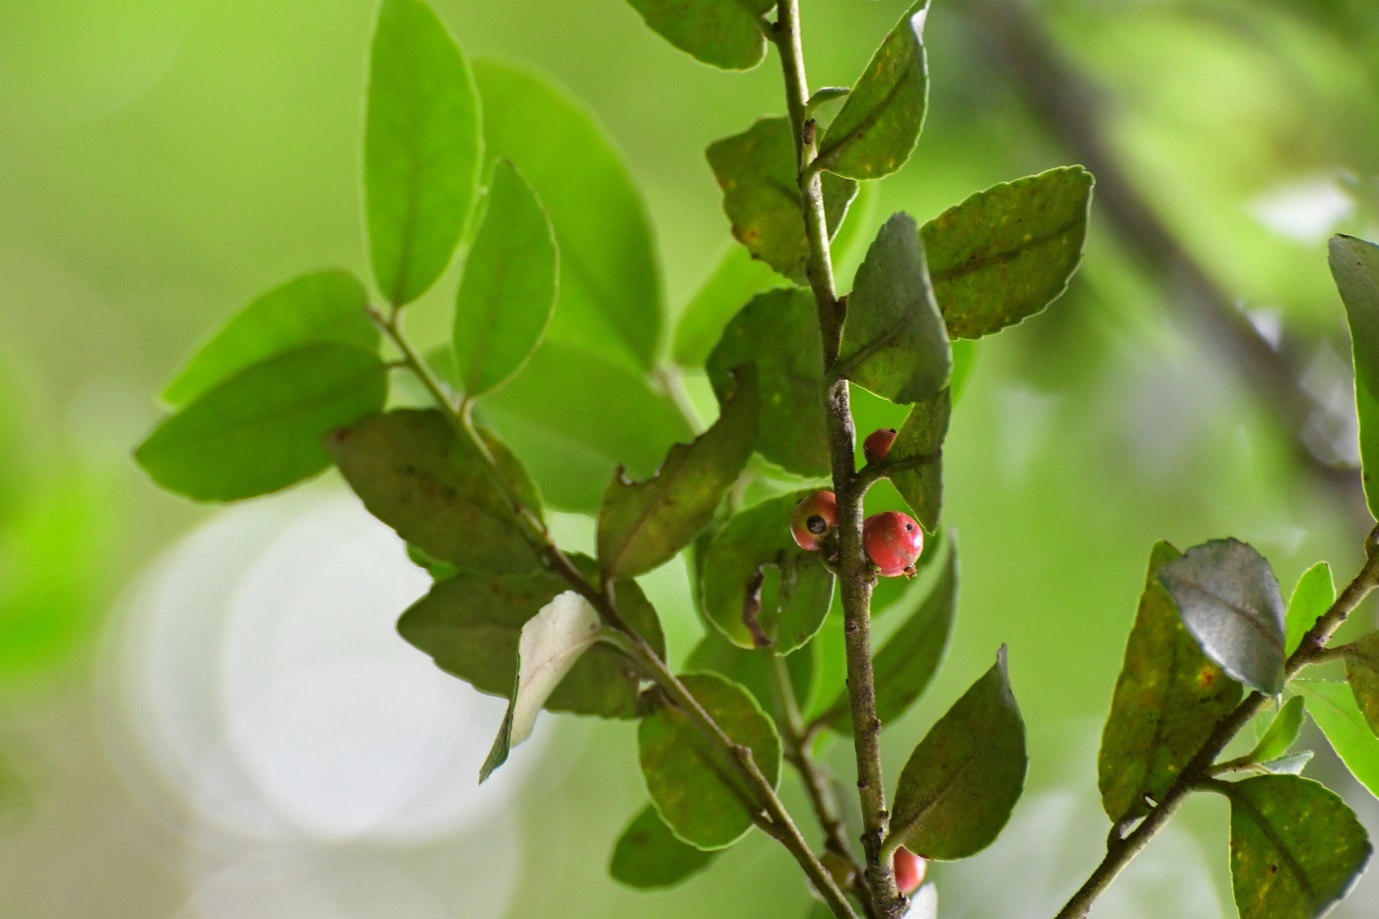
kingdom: Plantae
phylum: Tracheophyta
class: Magnoliopsida
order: Aquifoliales
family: Aquifoliaceae
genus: Ilex
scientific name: Ilex vomitoria
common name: Yaupon holly
